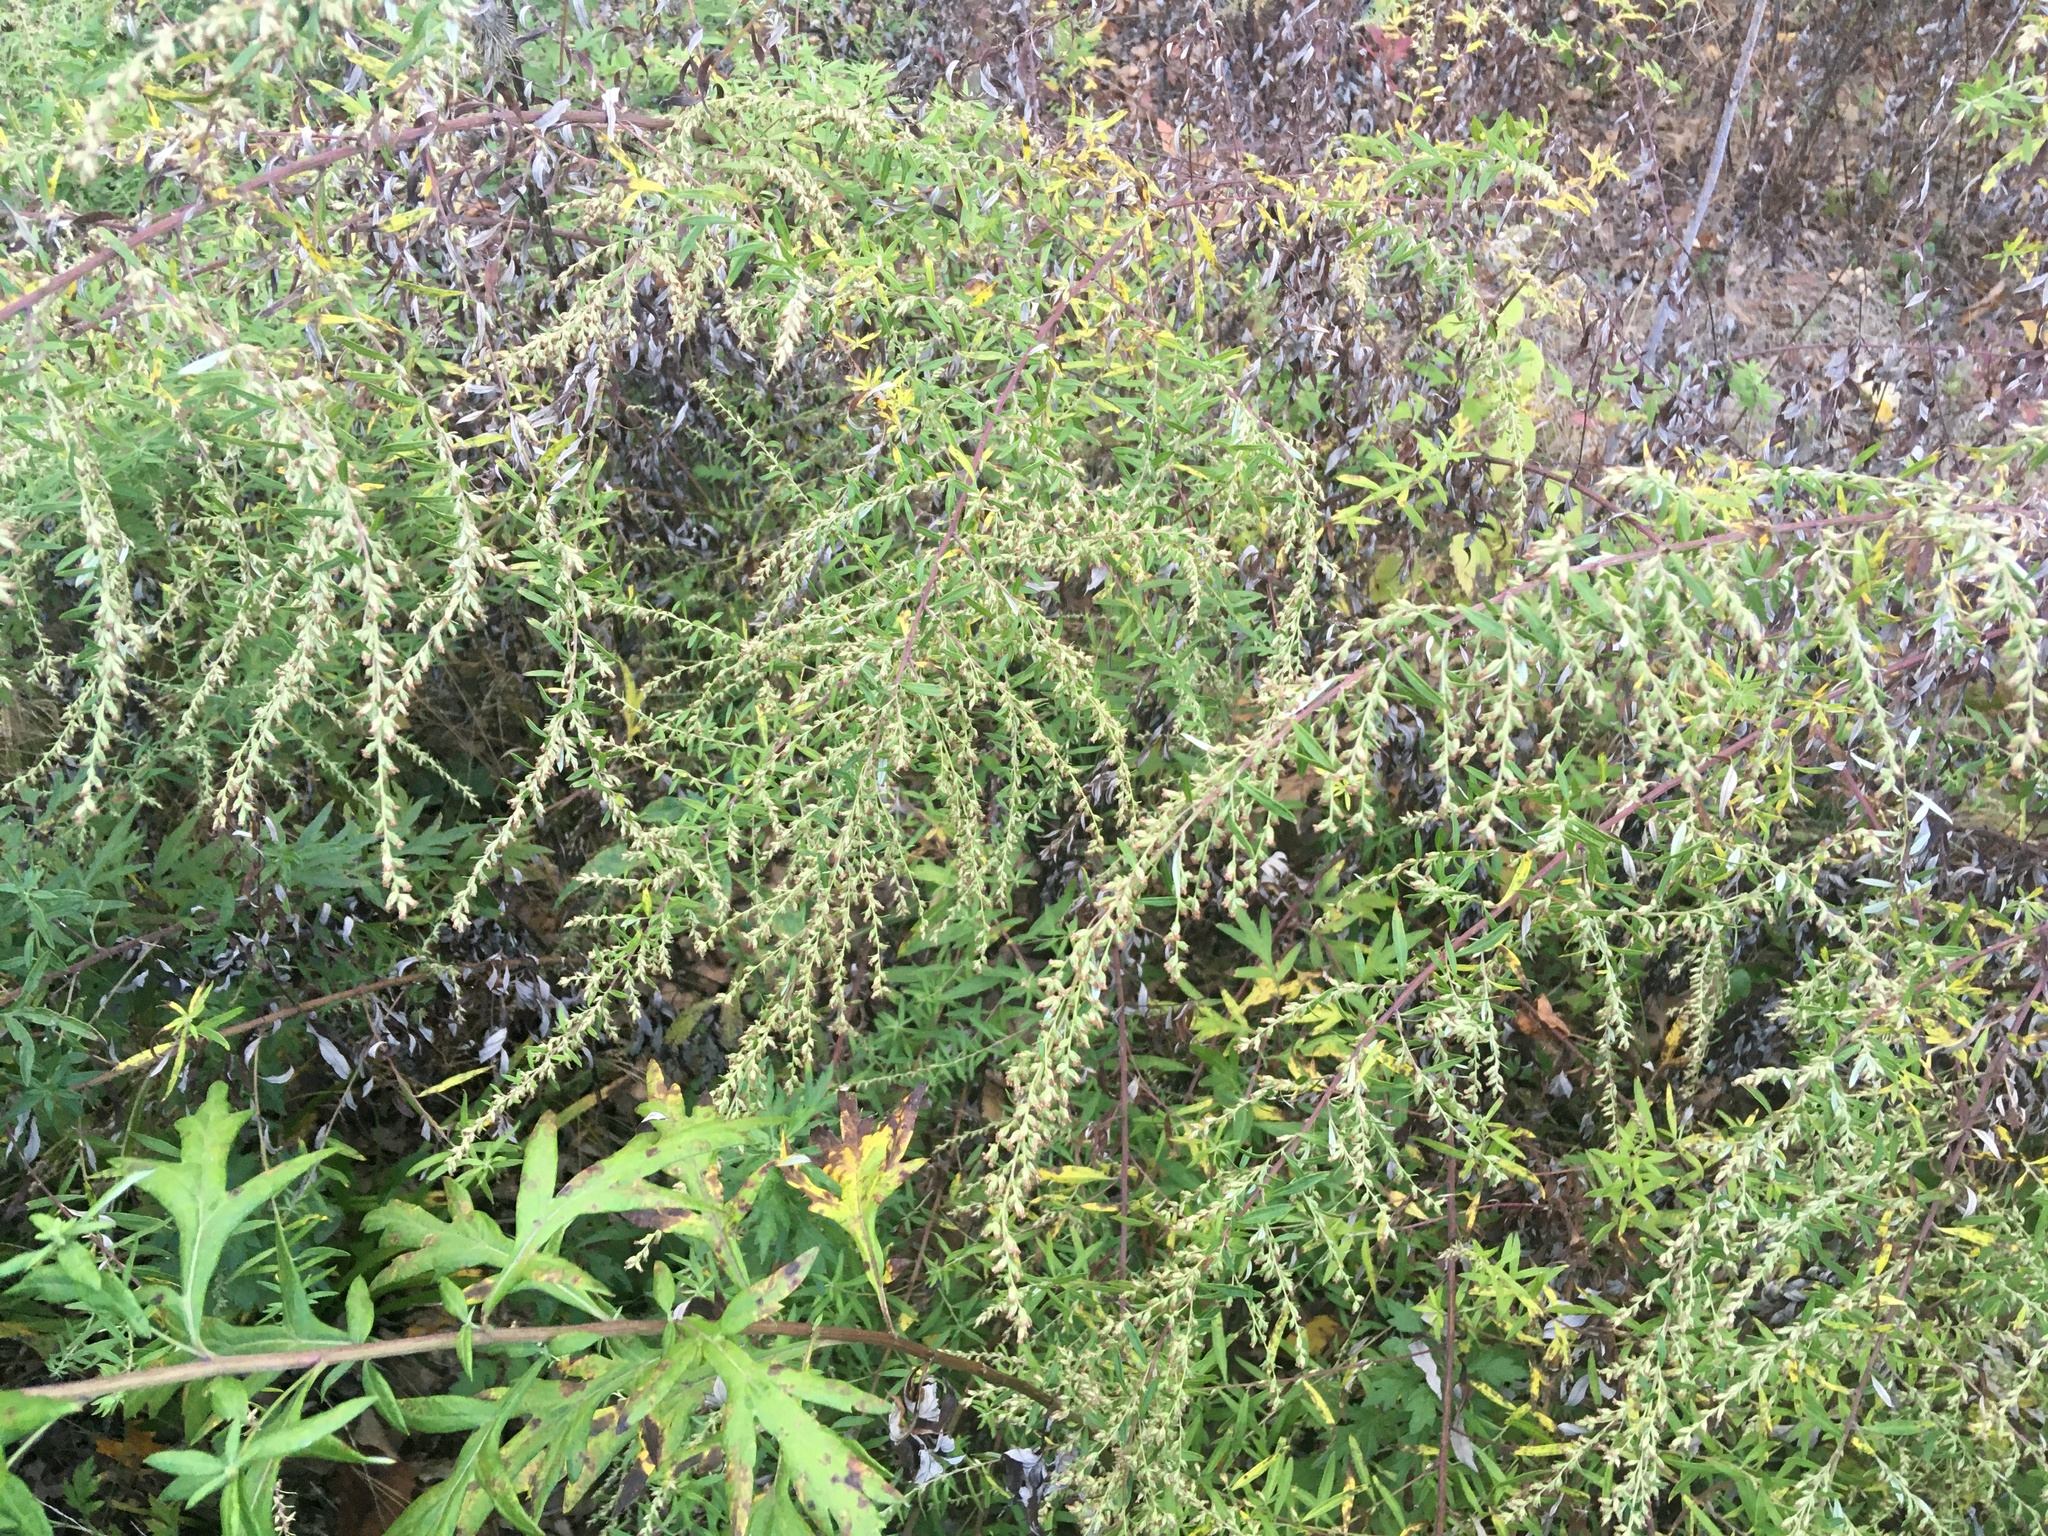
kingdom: Plantae
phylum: Tracheophyta
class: Magnoliopsida
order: Asterales
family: Asteraceae
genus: Artemisia
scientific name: Artemisia vulgaris
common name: Mugwort
